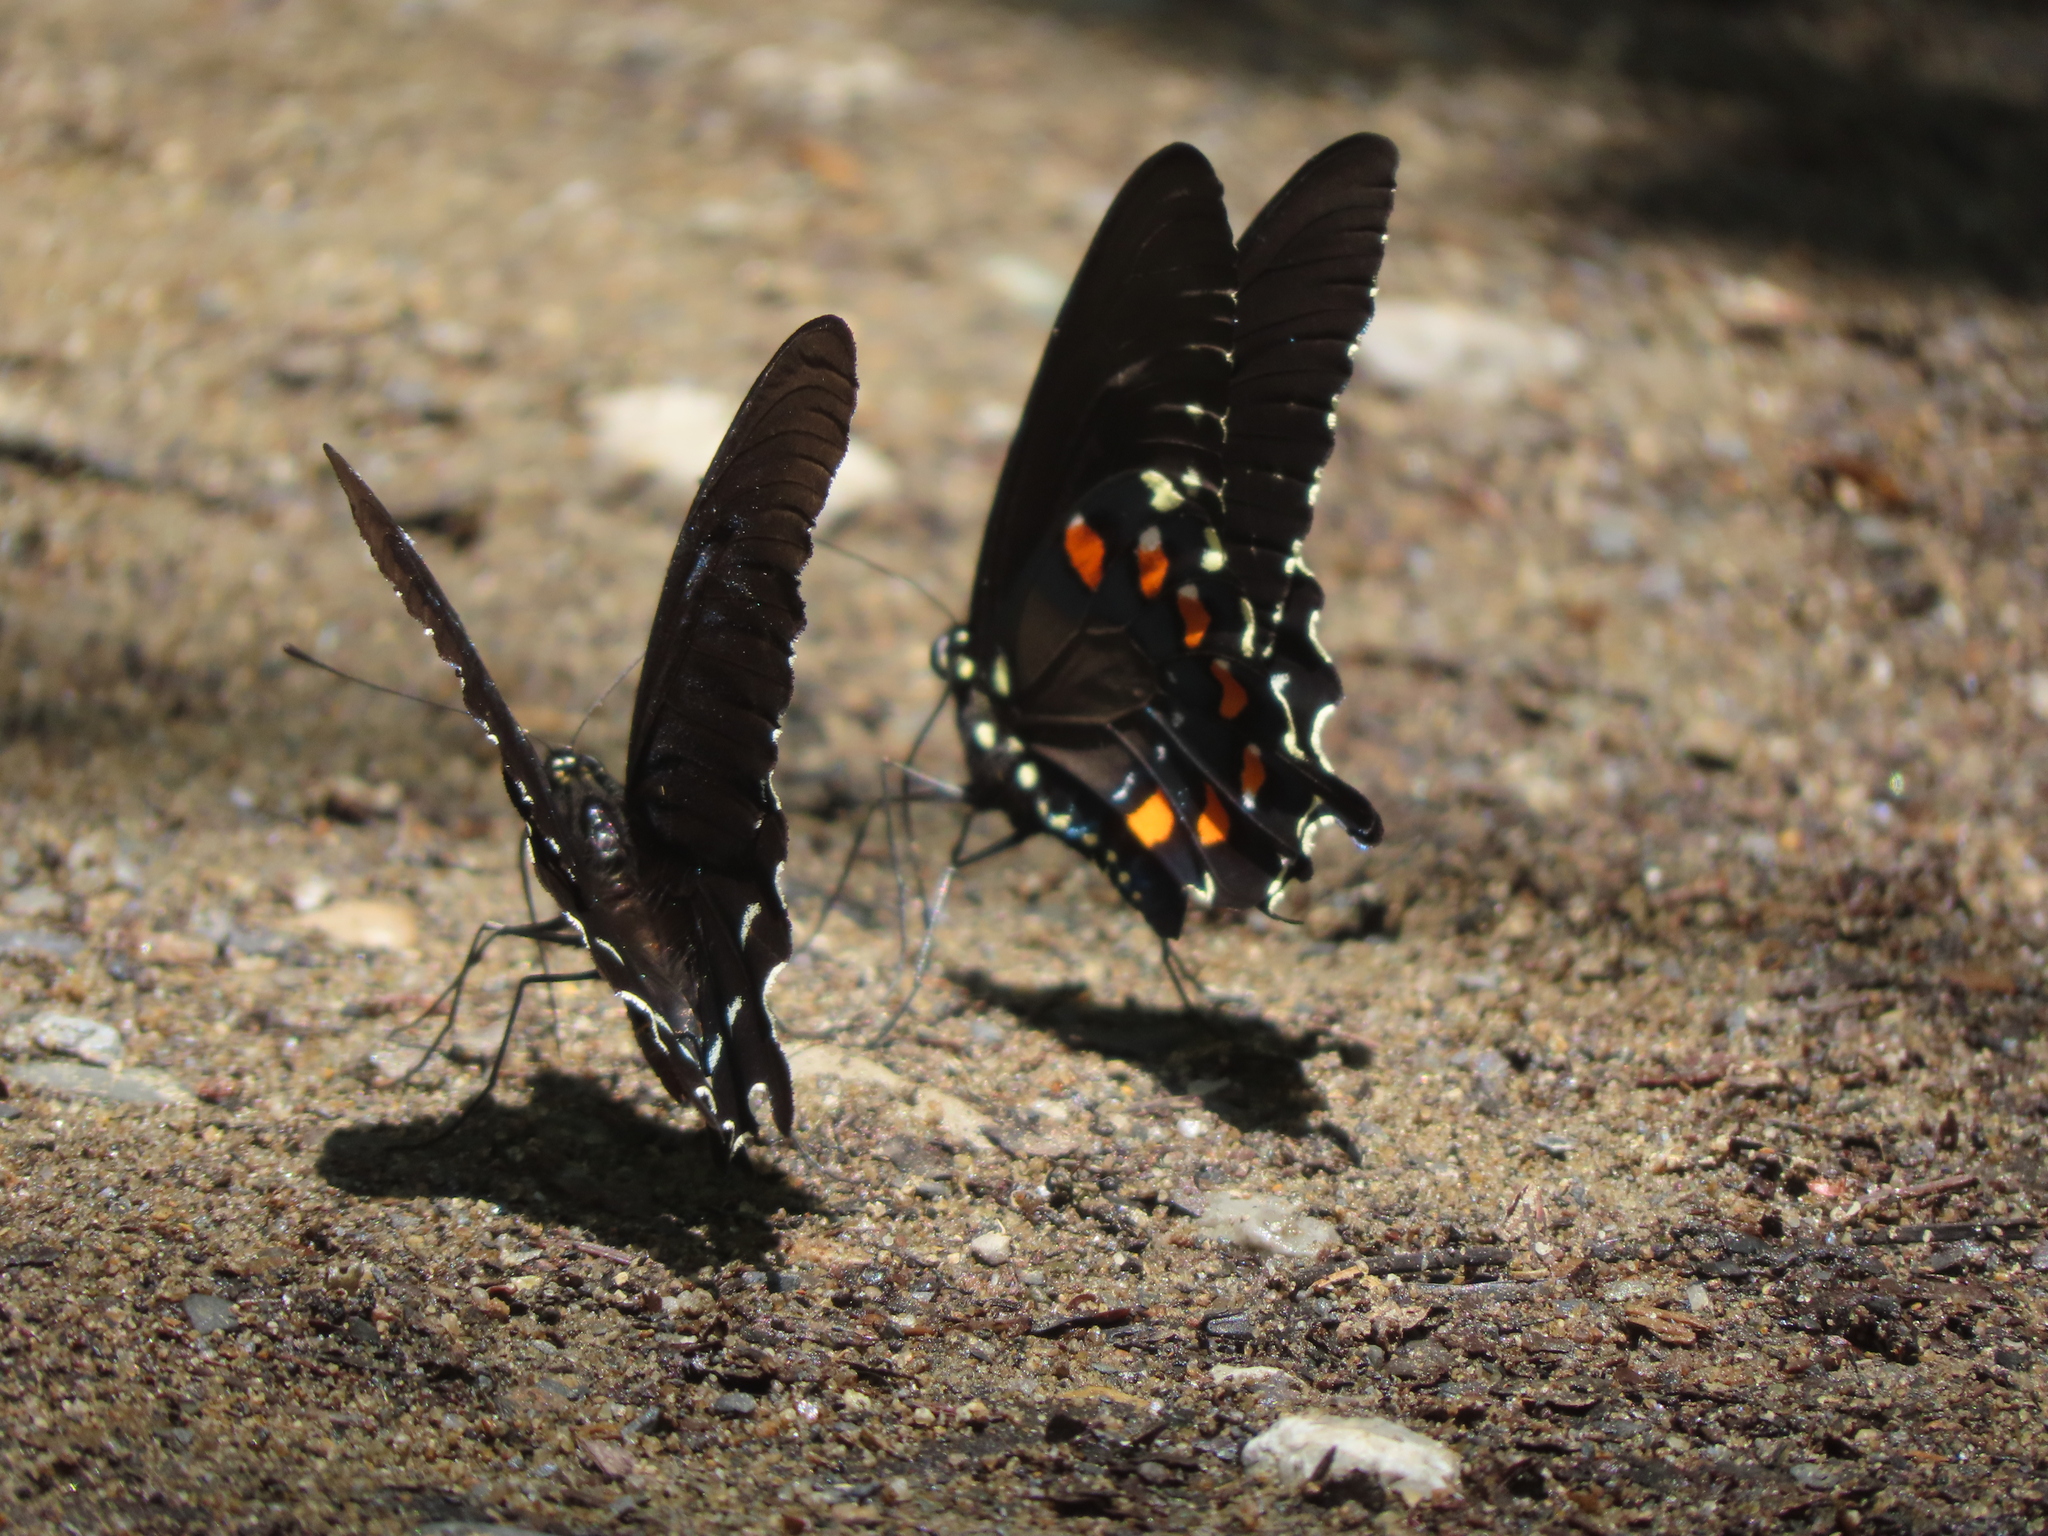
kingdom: Animalia
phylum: Arthropoda
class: Insecta
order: Lepidoptera
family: Papilionidae
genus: Battus
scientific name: Battus philenor
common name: Pipevine swallowtail
